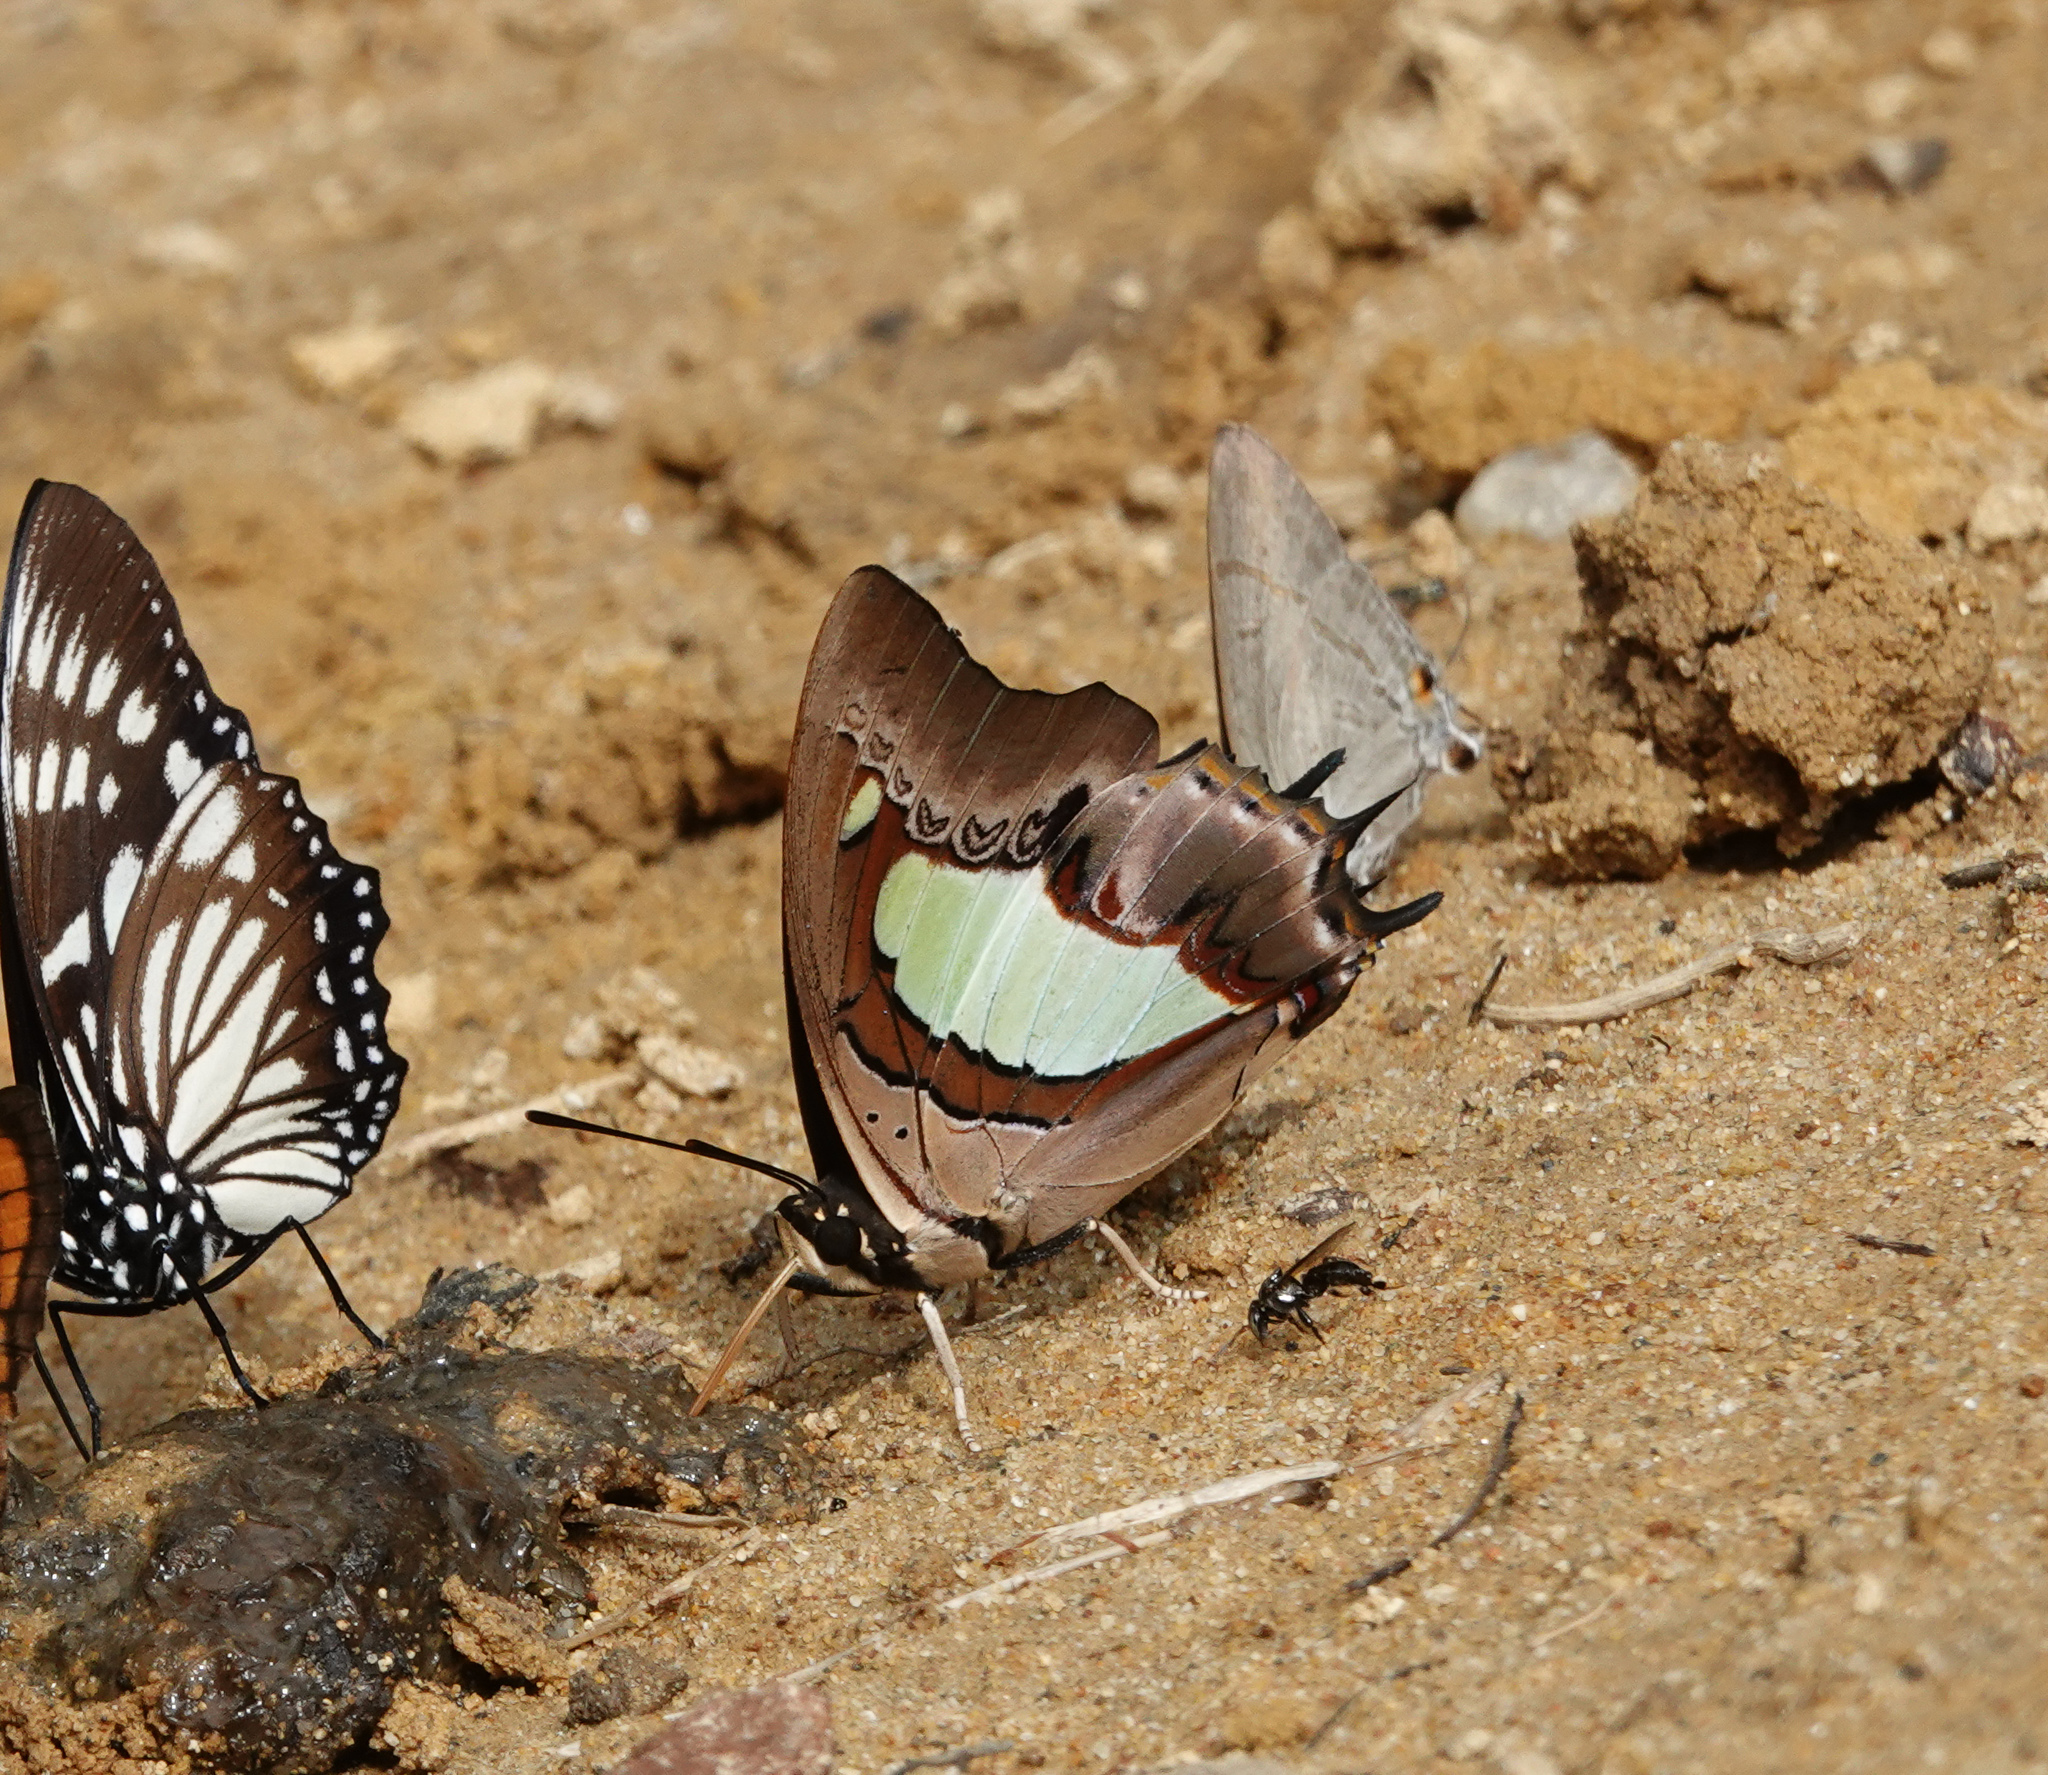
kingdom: Animalia
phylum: Arthropoda
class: Insecta
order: Lepidoptera
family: Nymphalidae
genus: Polyura
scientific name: Polyura
